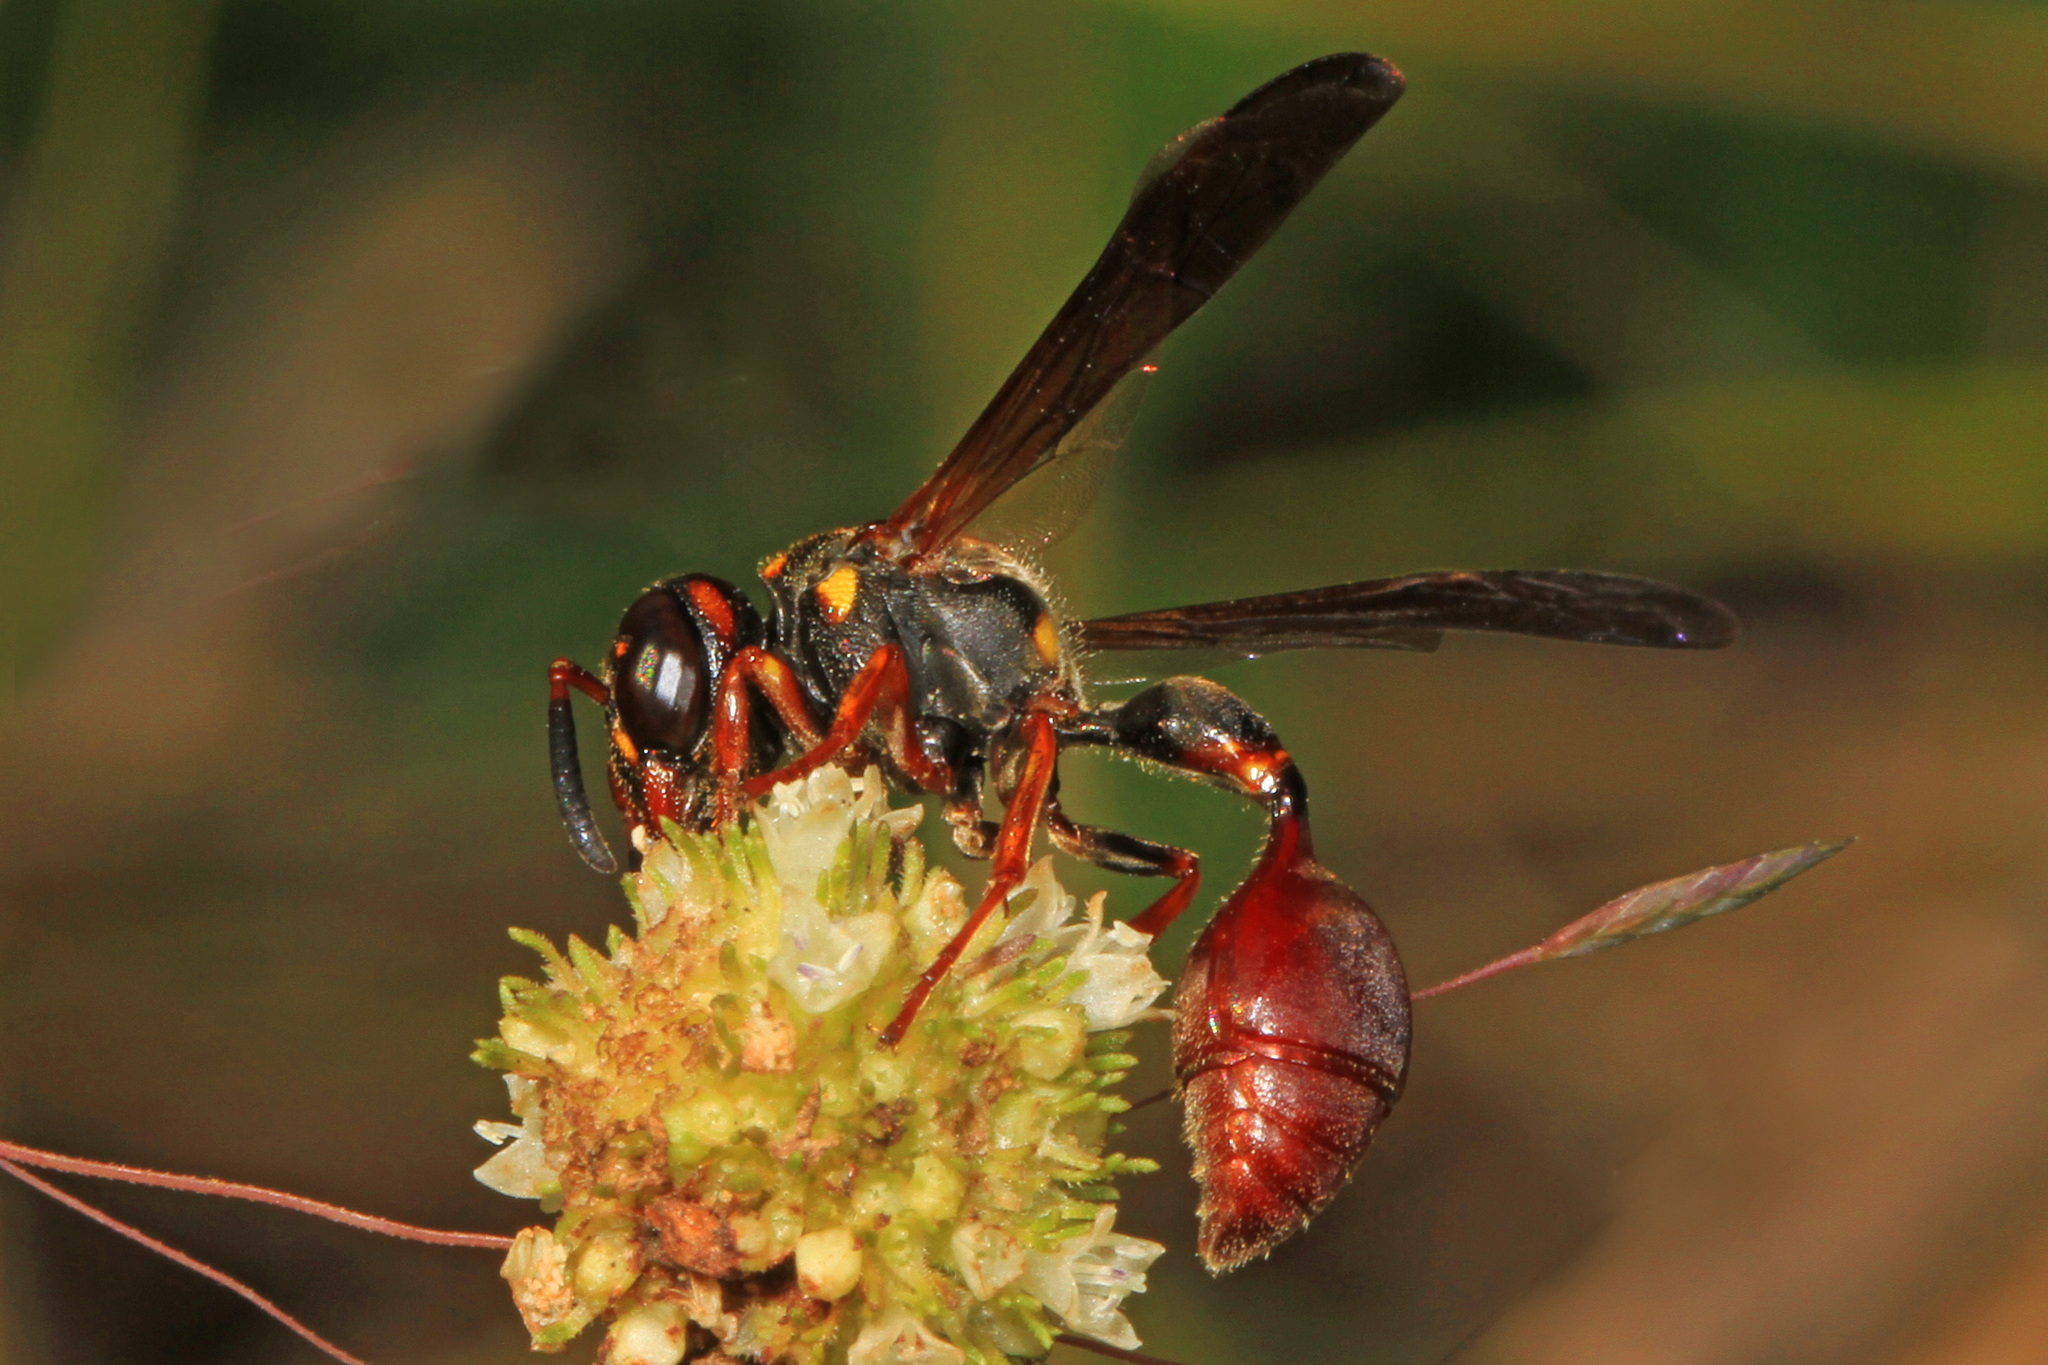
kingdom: Animalia
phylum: Arthropoda
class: Insecta
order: Hymenoptera
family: Eumenidae
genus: Zethus
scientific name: Zethus slossonae
